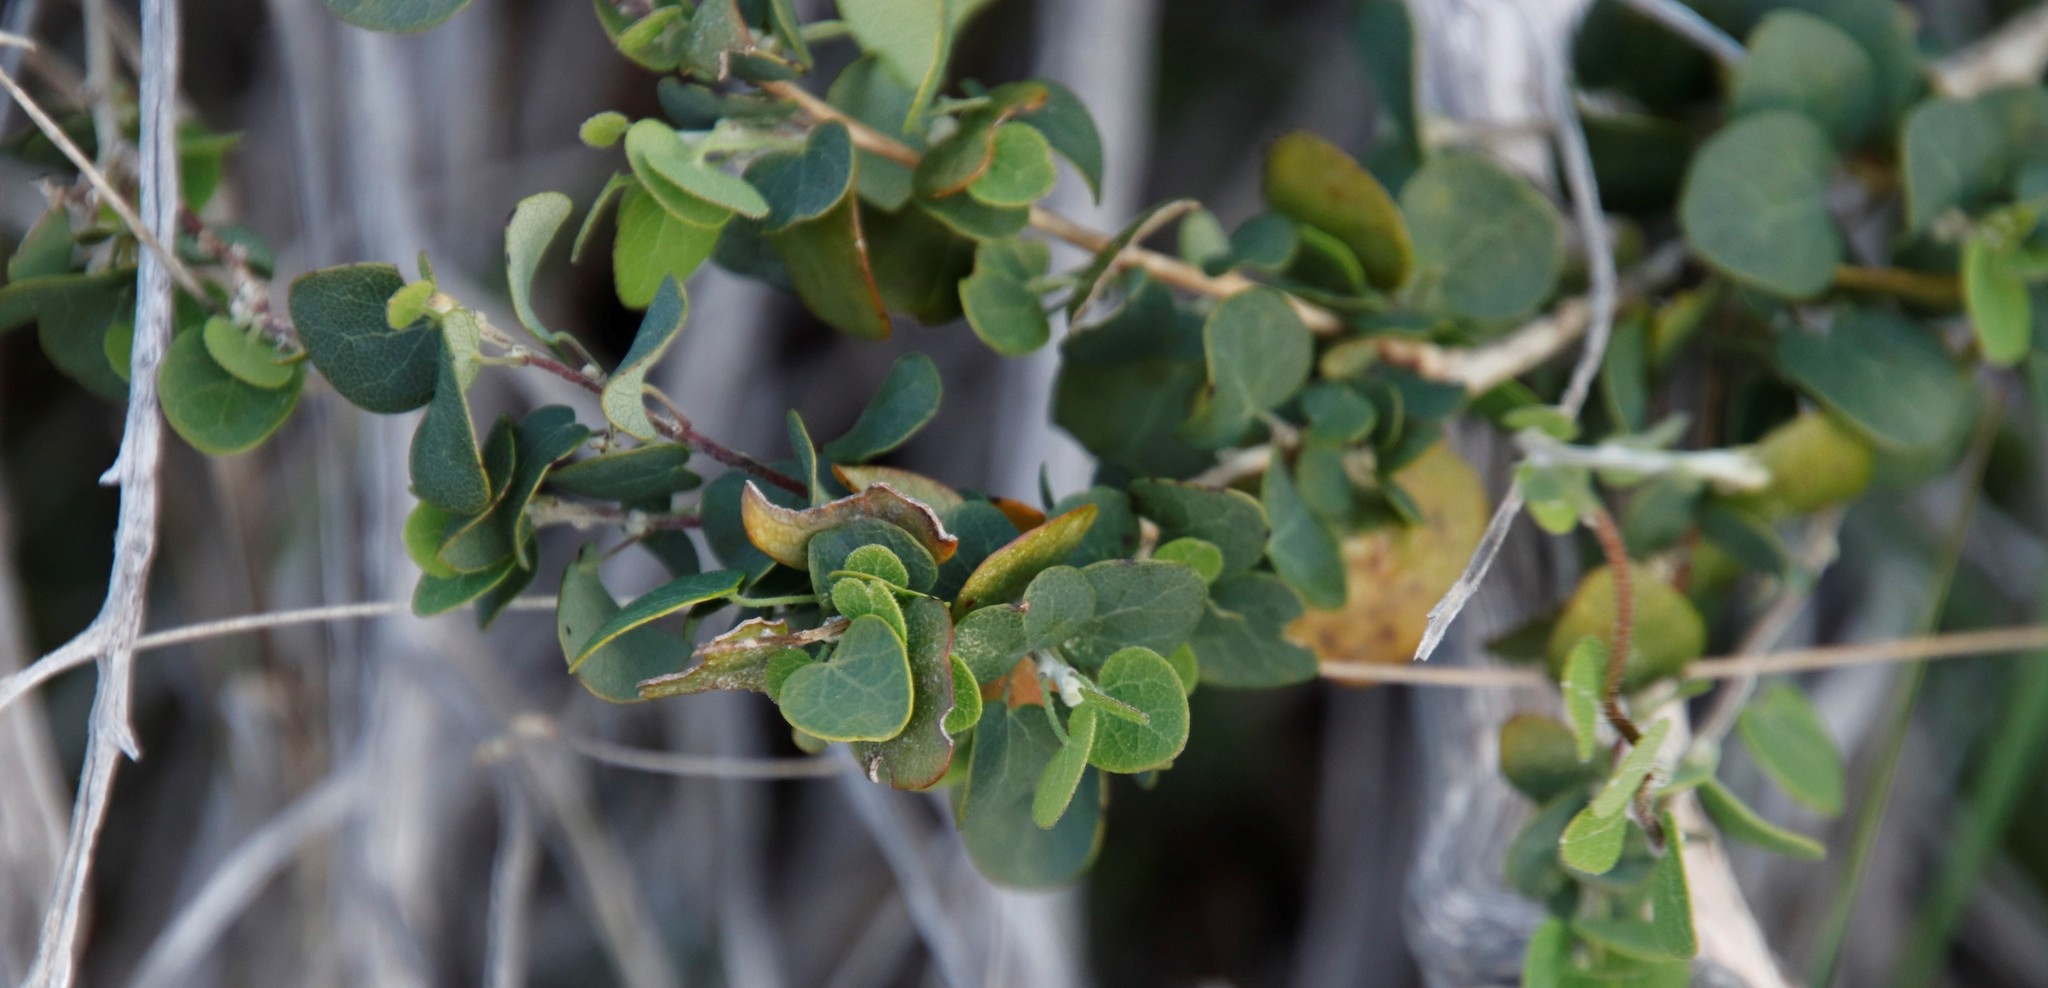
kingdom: Plantae
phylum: Tracheophyta
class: Magnoliopsida
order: Ranunculales
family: Menispermaceae
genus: Cissampelos
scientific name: Cissampelos capensis
